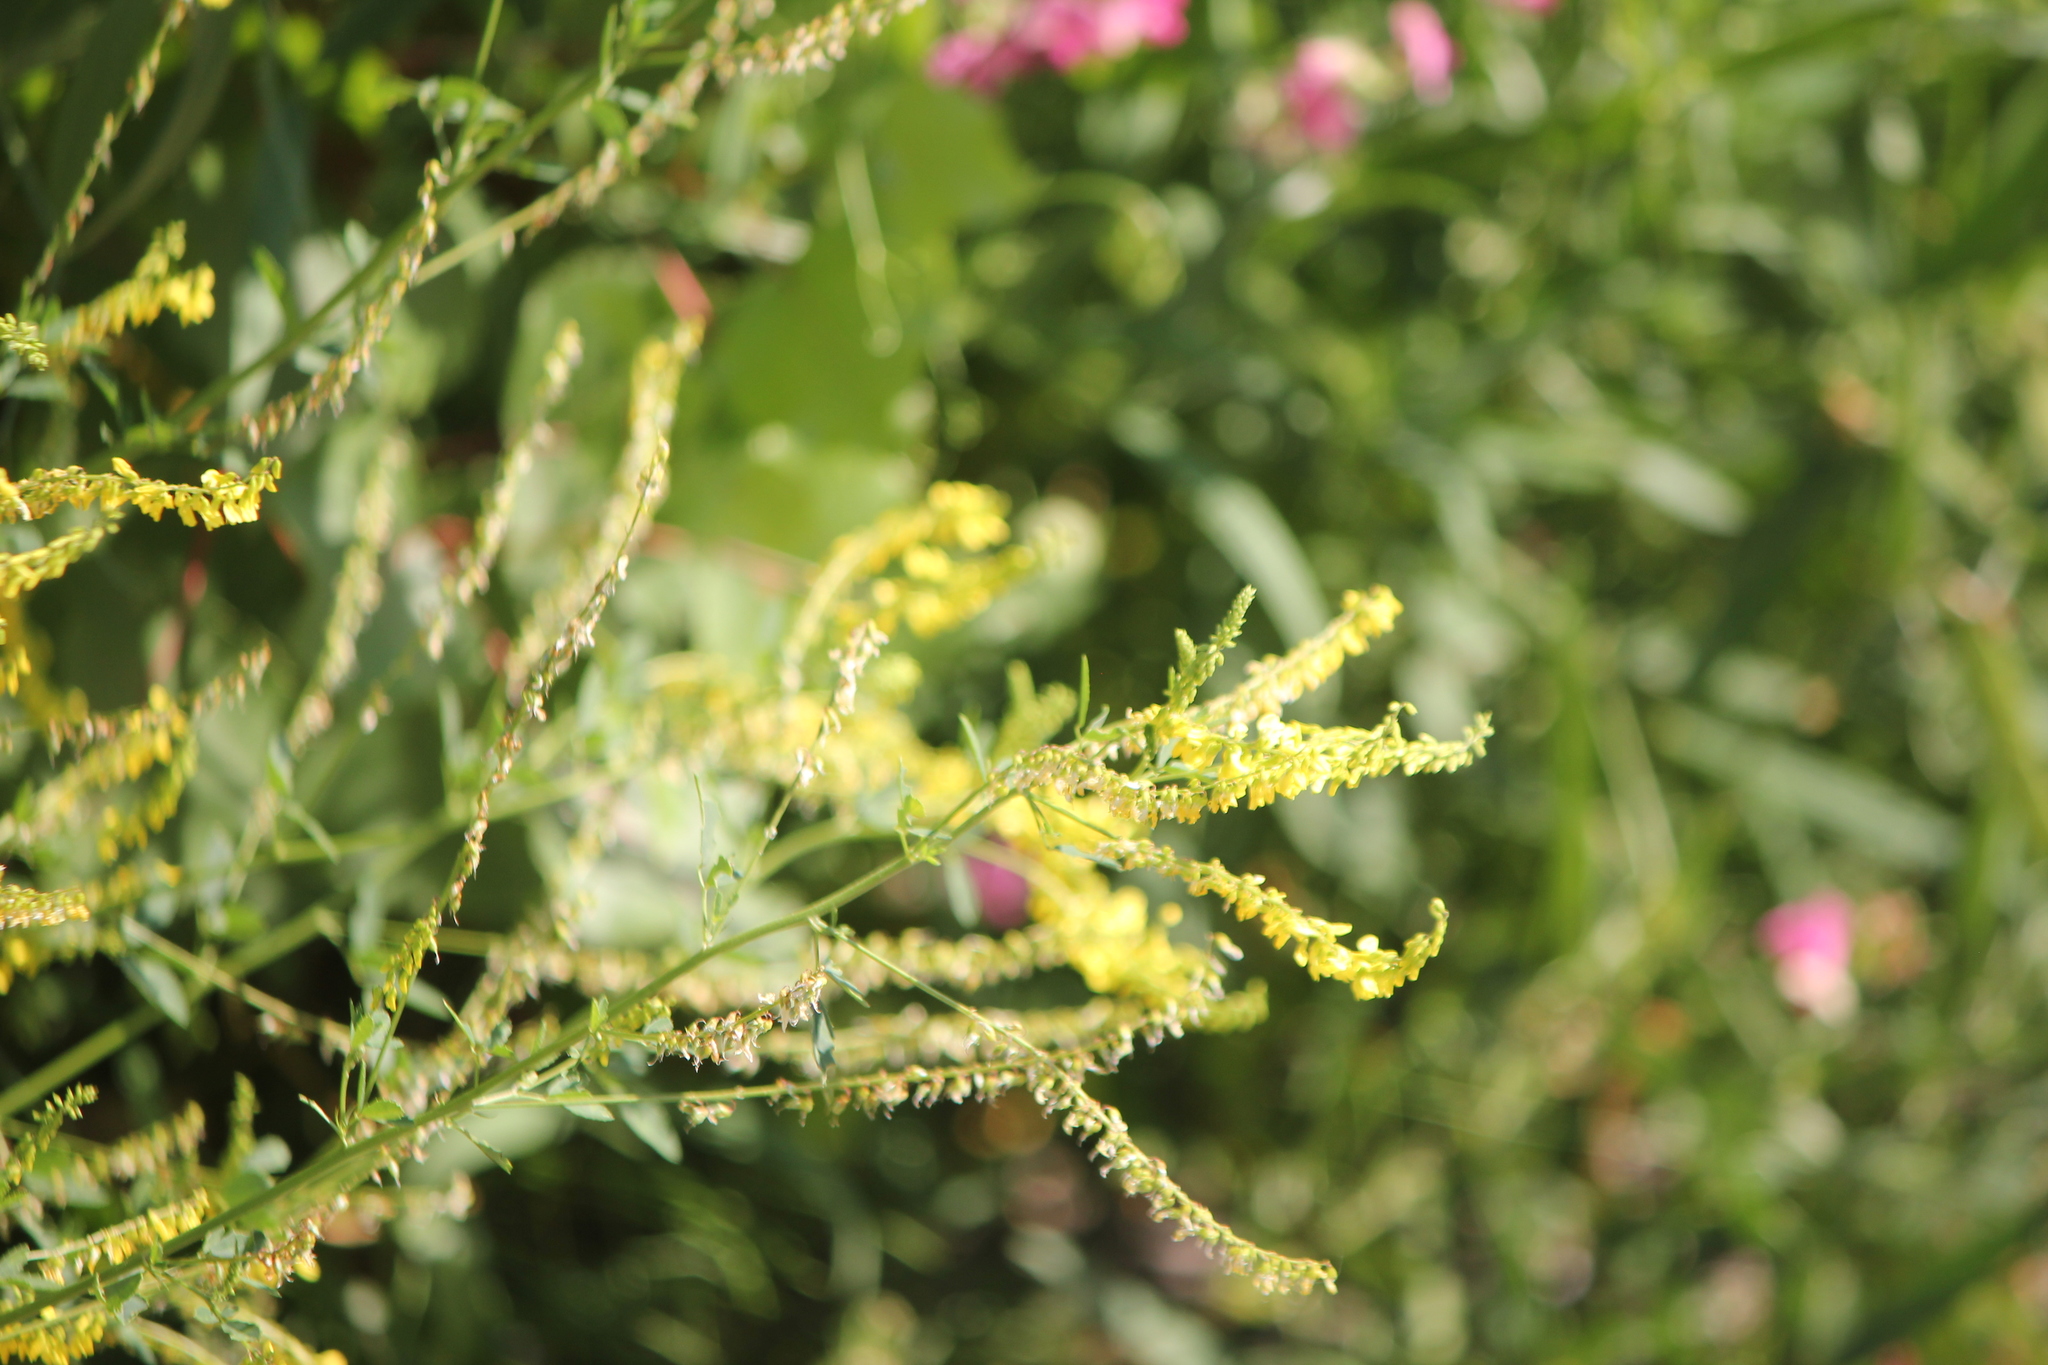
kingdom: Plantae
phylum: Tracheophyta
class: Magnoliopsida
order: Fabales
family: Fabaceae
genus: Melilotus
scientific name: Melilotus officinalis
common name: Sweetclover
